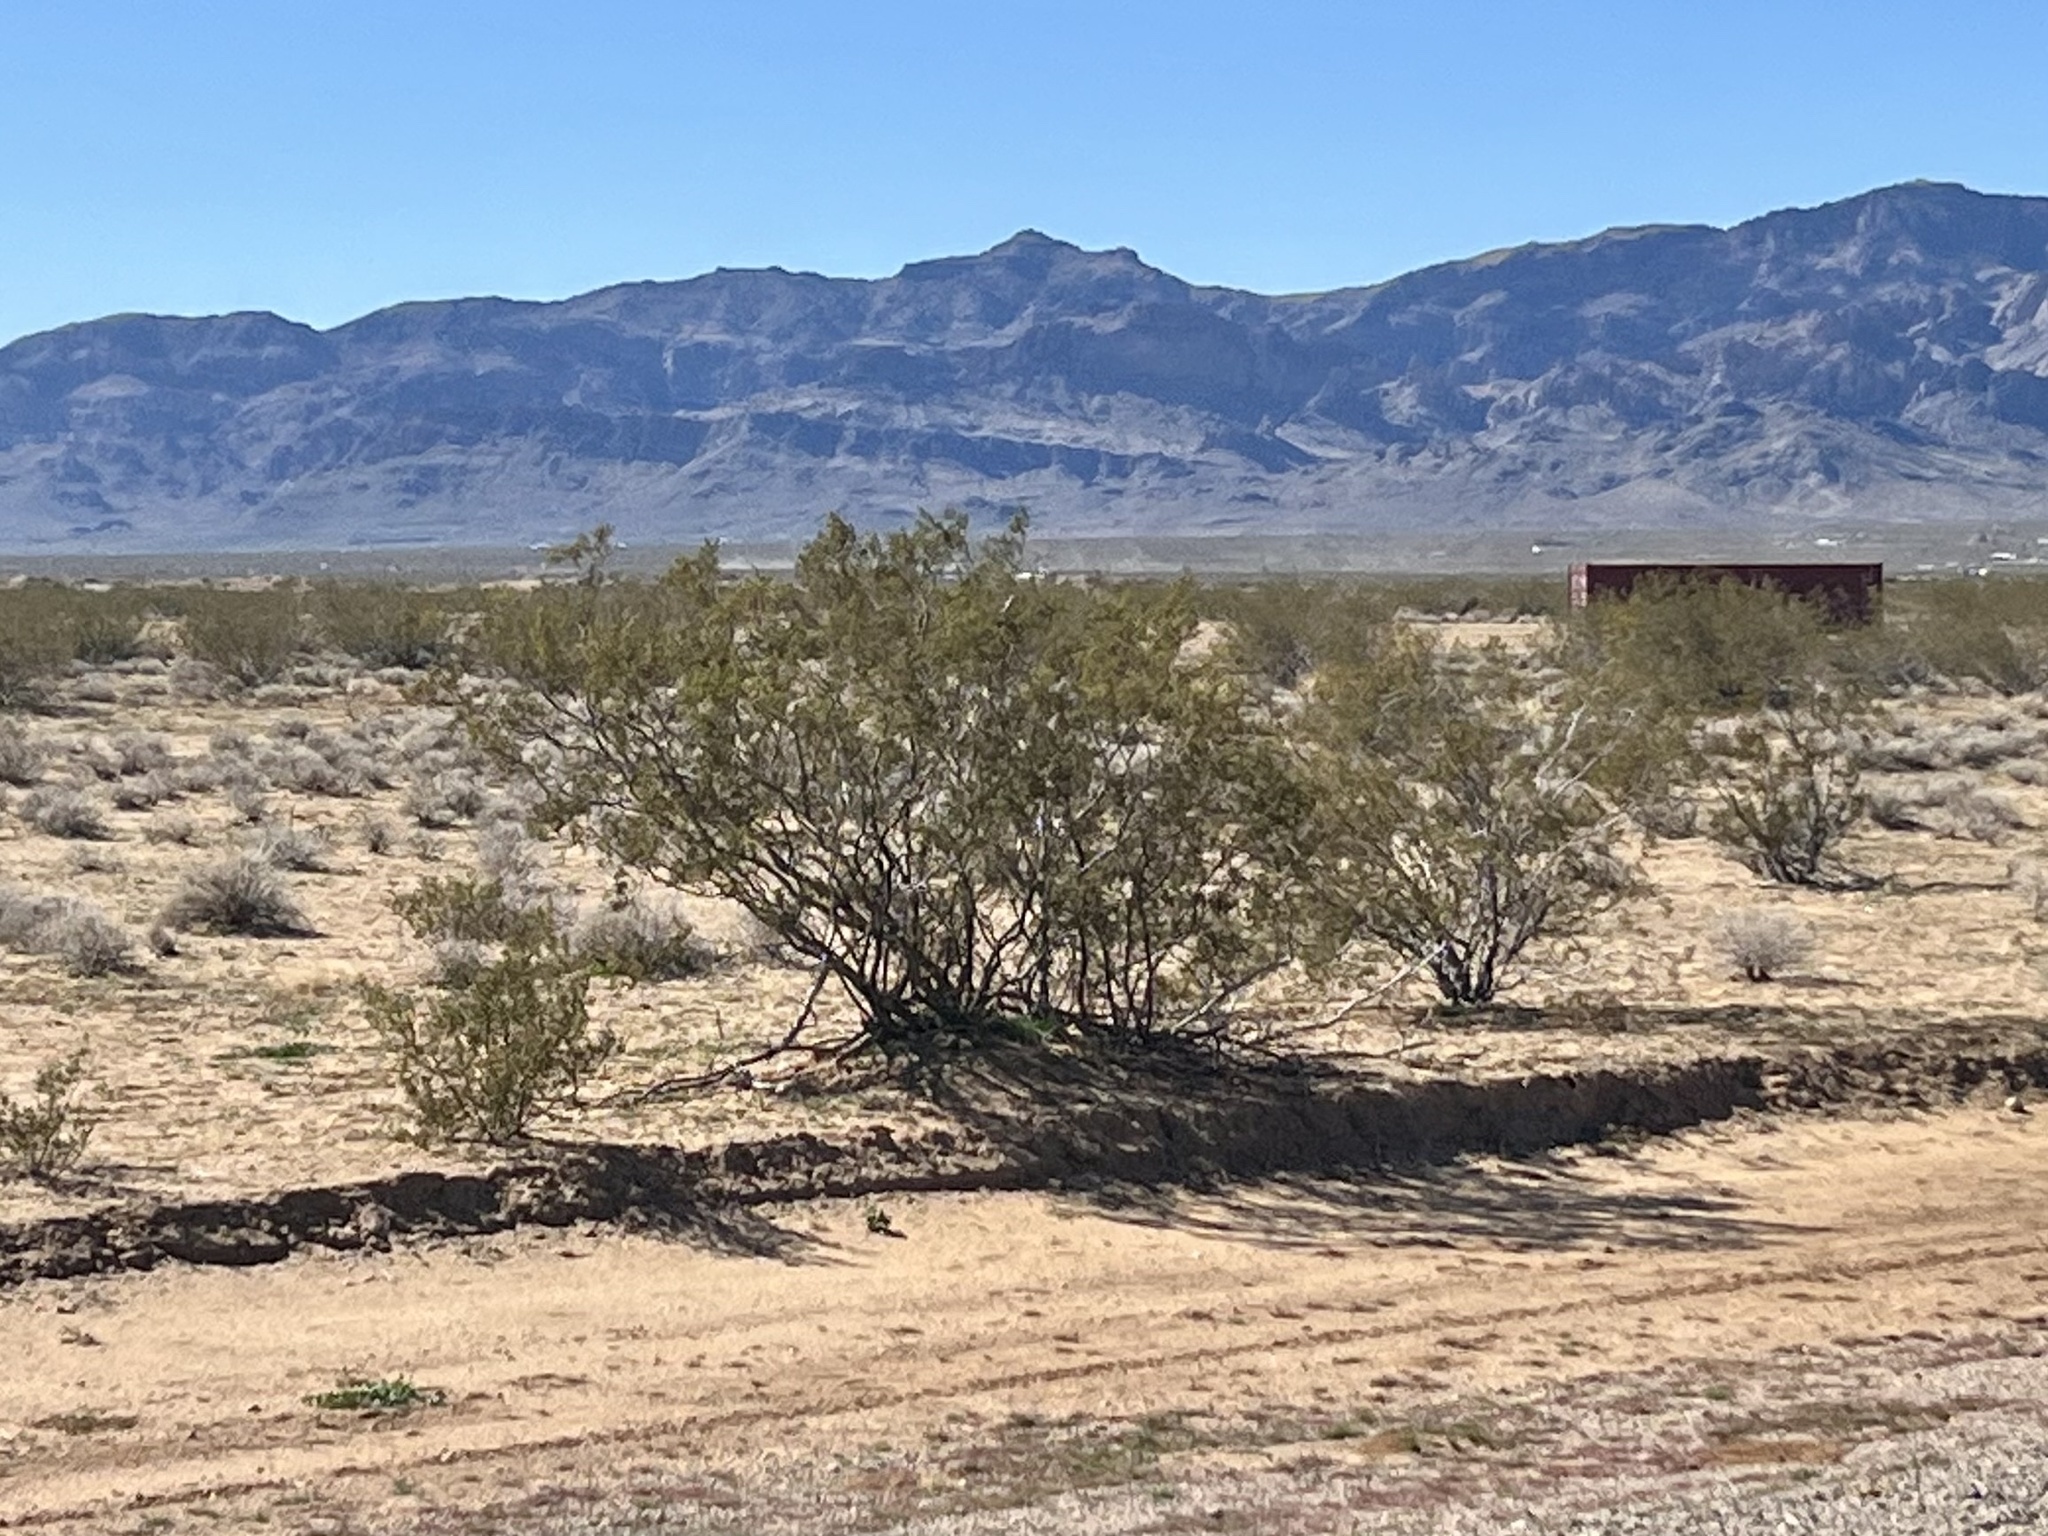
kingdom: Plantae
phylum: Tracheophyta
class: Magnoliopsida
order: Zygophyllales
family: Zygophyllaceae
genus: Larrea
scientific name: Larrea tridentata
